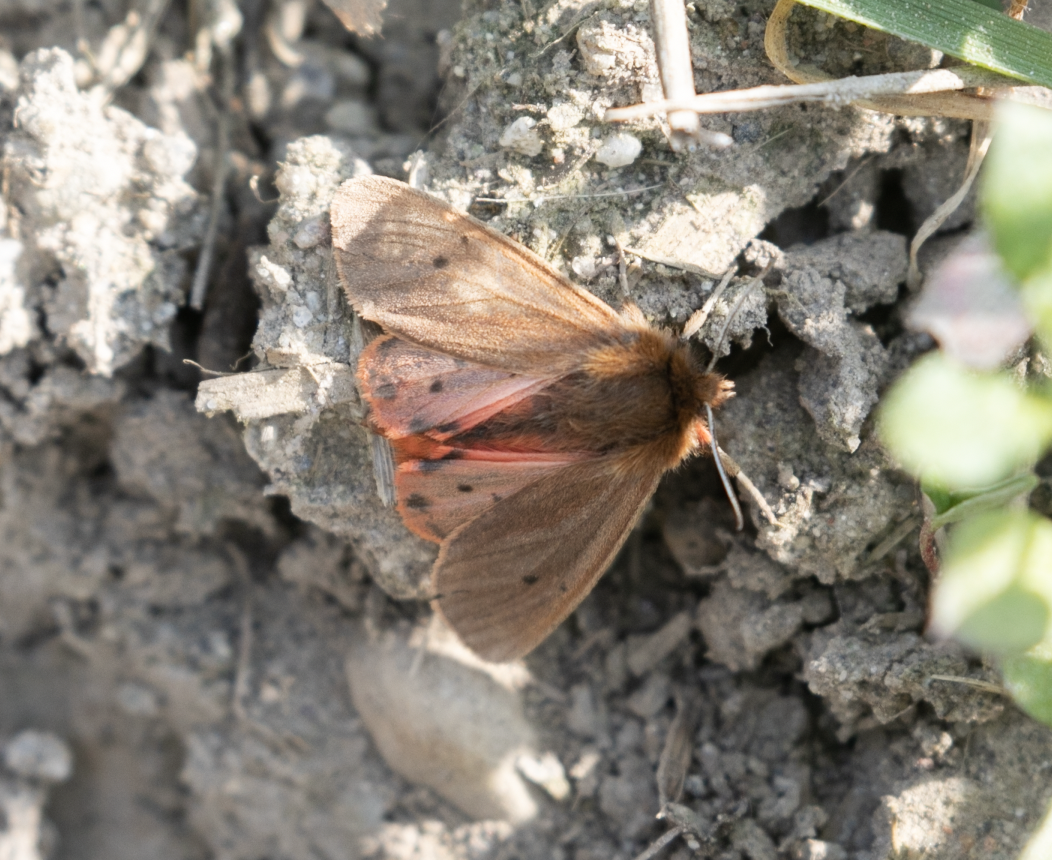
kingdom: Animalia
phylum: Arthropoda
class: Insecta
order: Lepidoptera
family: Erebidae
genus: Phragmatobia
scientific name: Phragmatobia fuliginosa
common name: Ruby tiger
